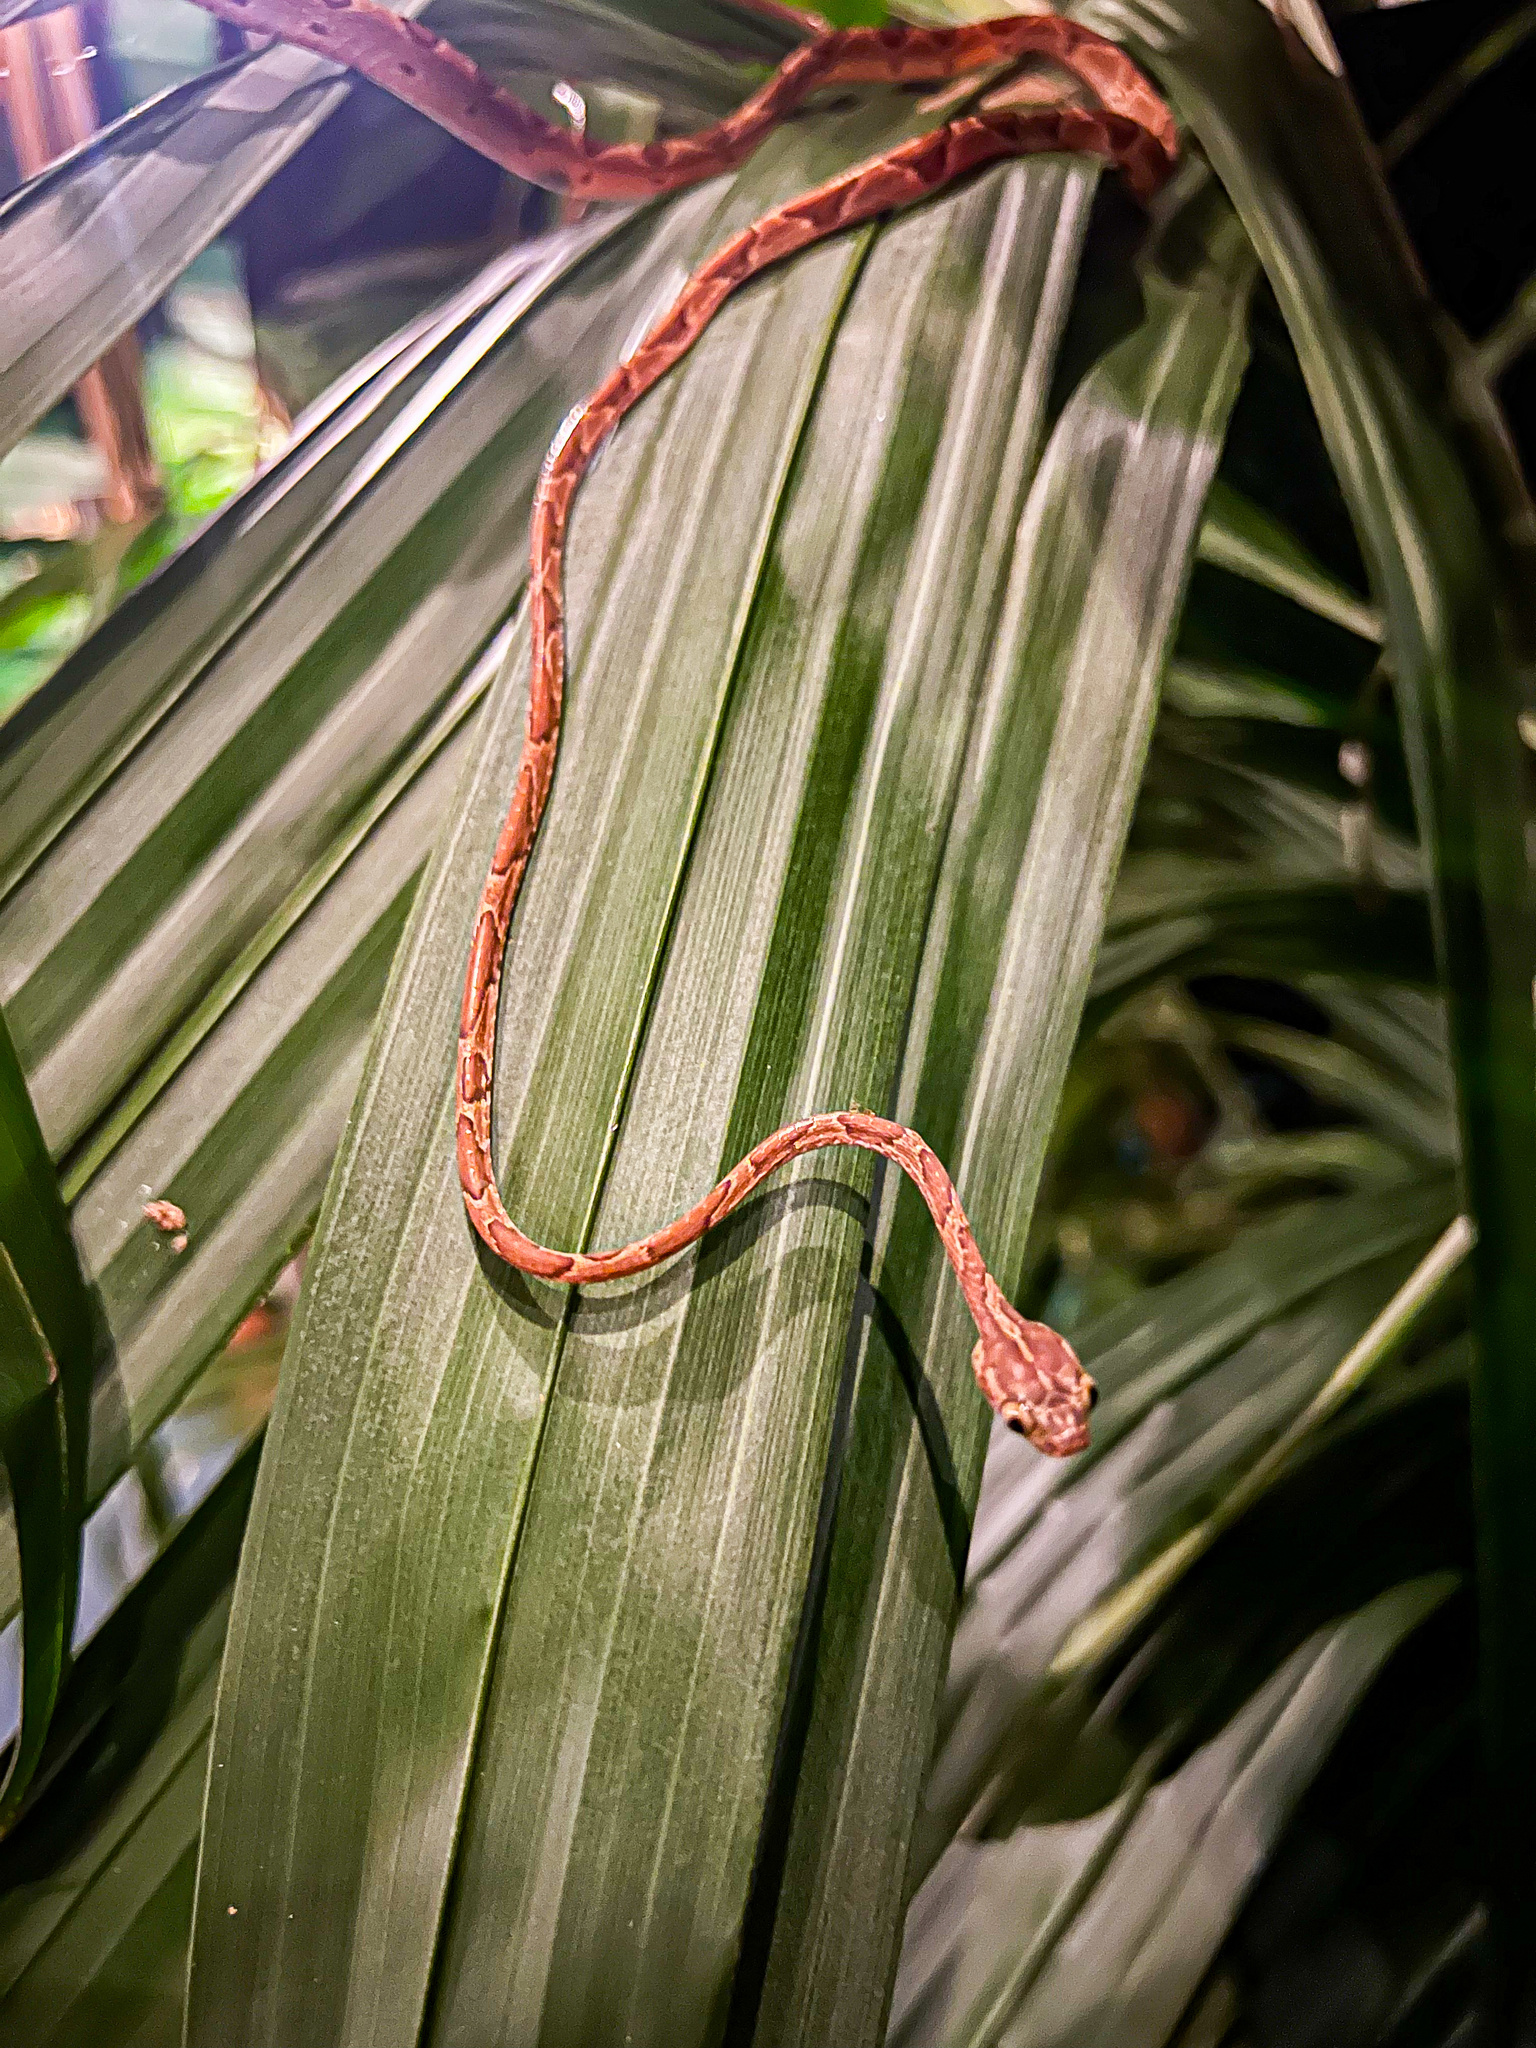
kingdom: Animalia
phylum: Chordata
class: Squamata
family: Colubridae
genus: Imantodes
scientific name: Imantodes cenchoa
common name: Blunthead tree snake
